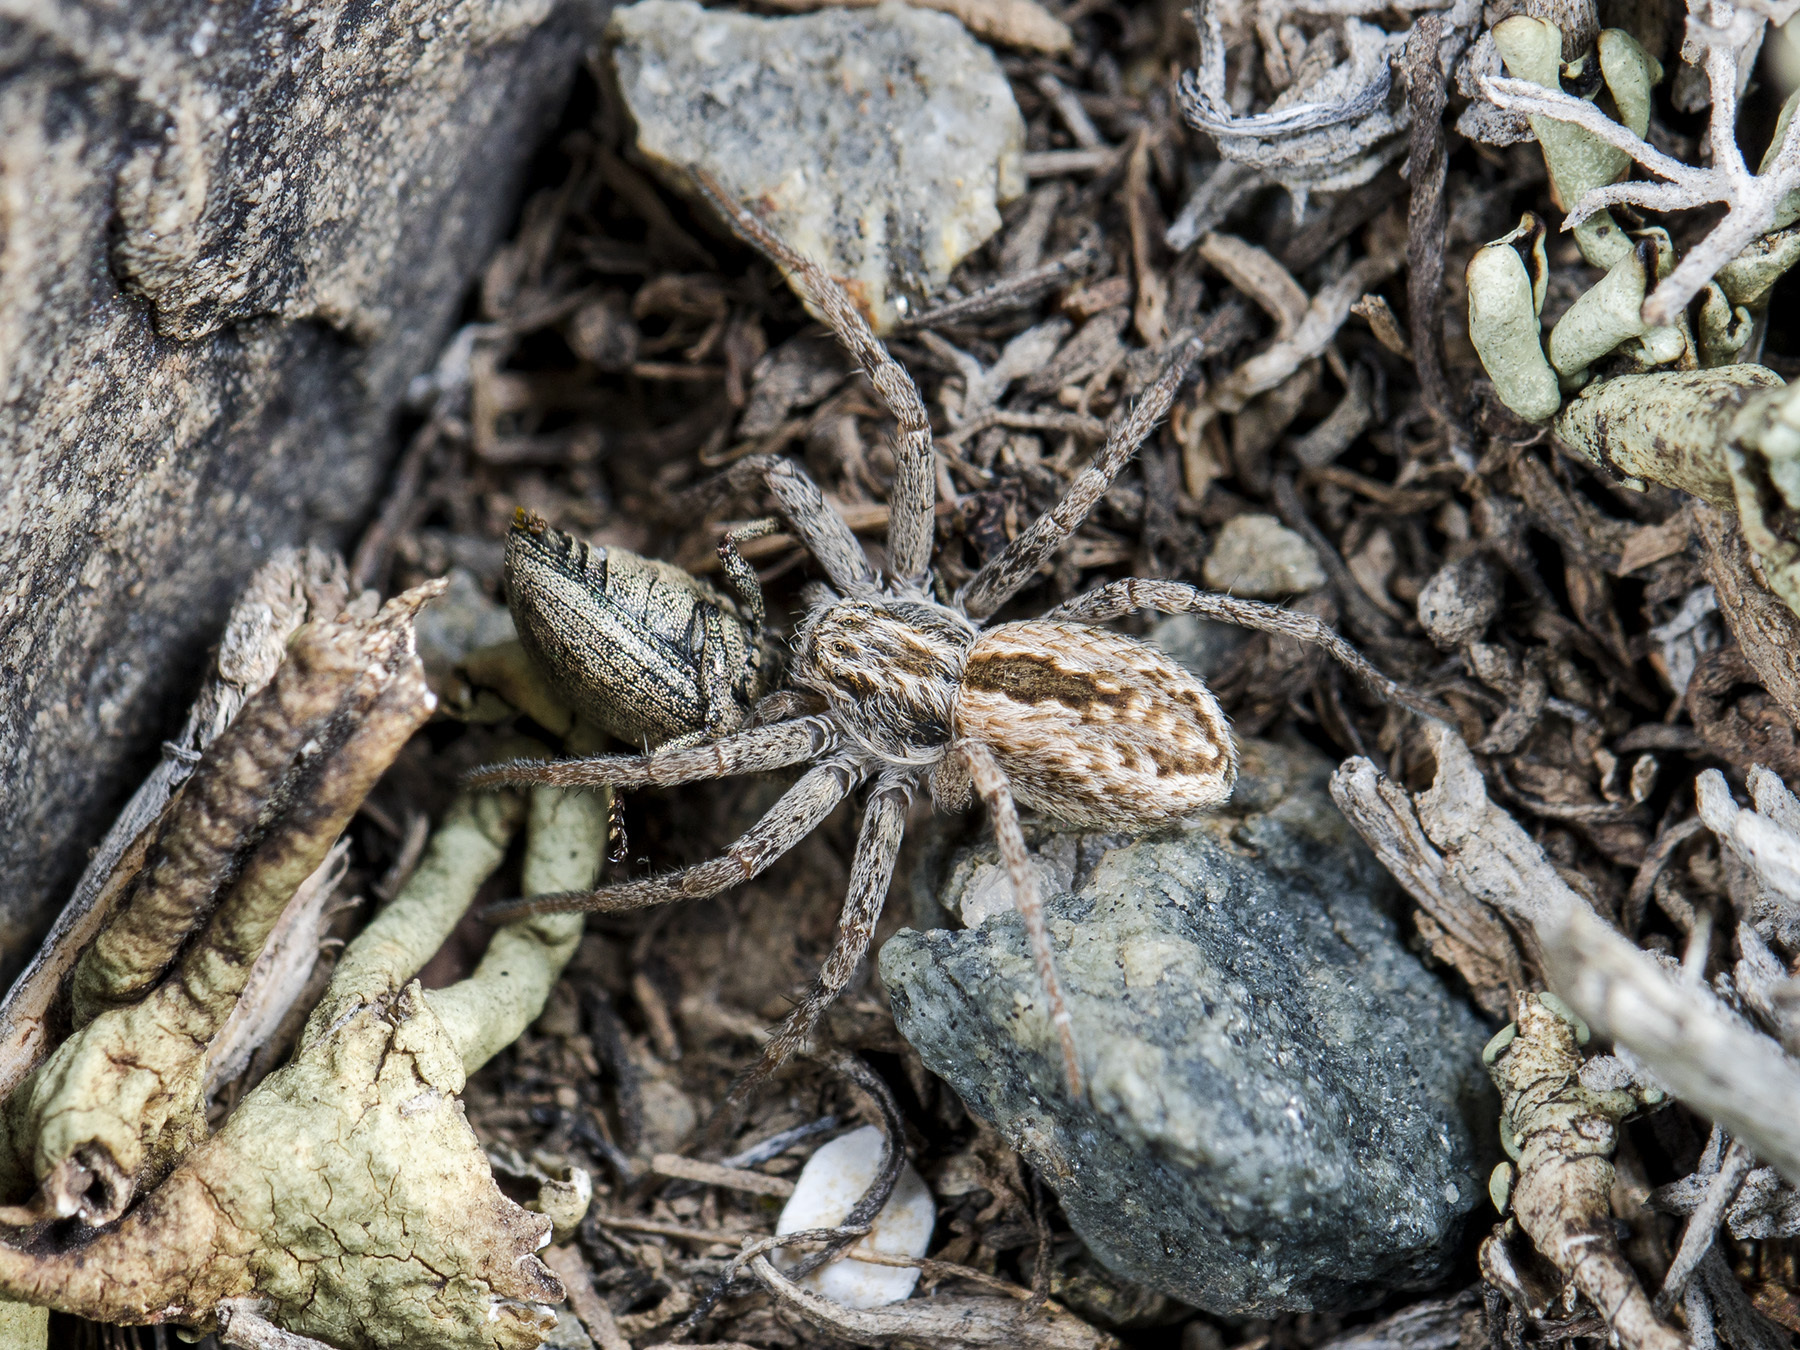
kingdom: Animalia
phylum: Arthropoda
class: Arachnida
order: Araneae
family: Philodromidae
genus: Thanatus
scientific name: Thanatus mikhailovi
